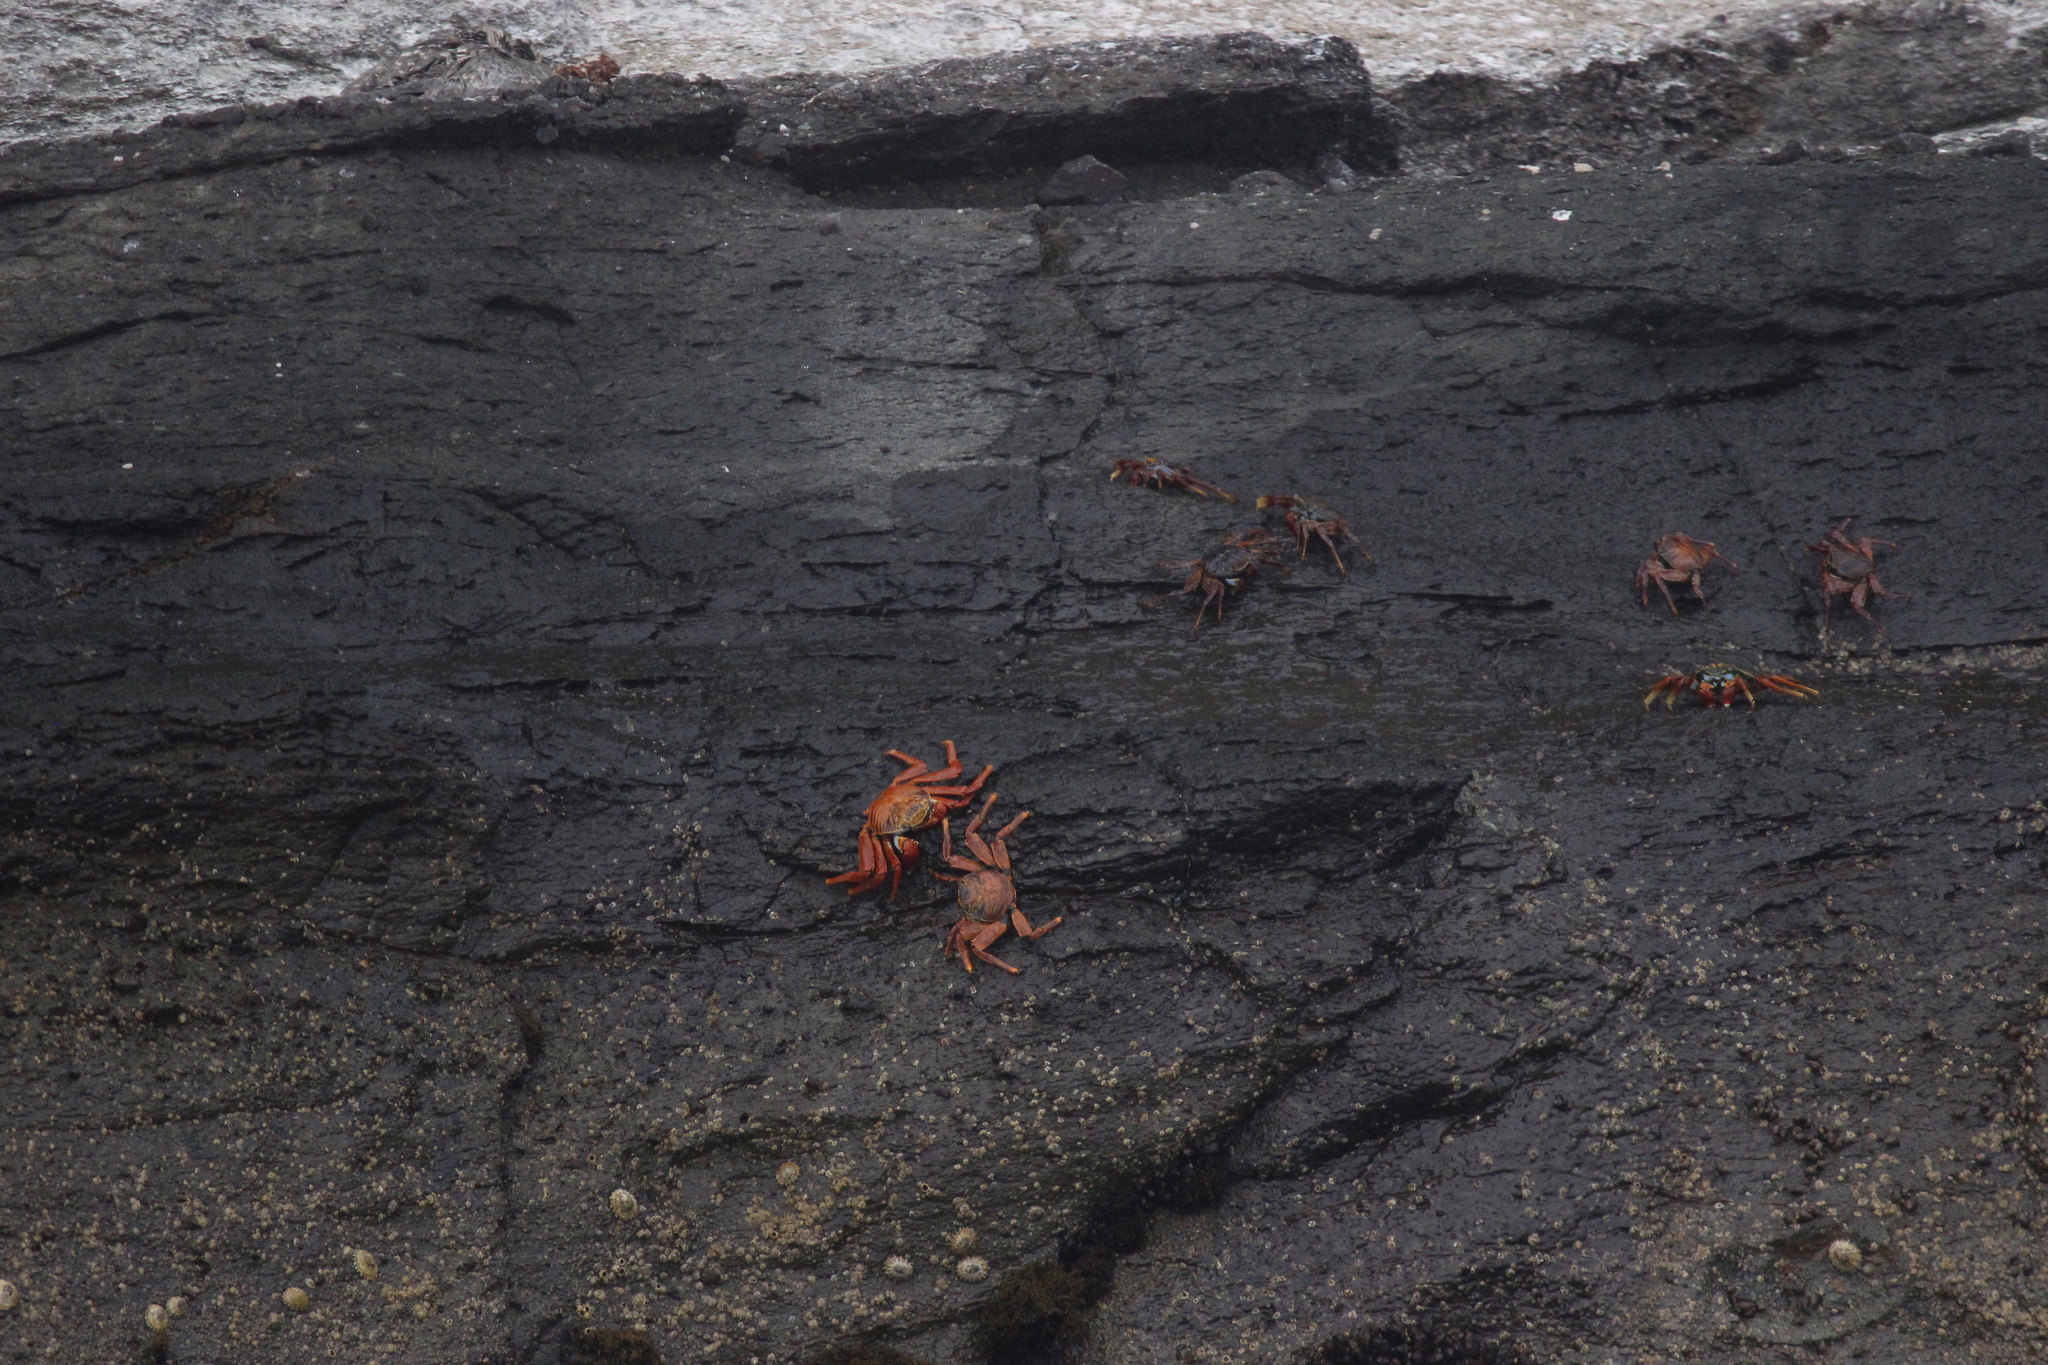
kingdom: Animalia
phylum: Arthropoda
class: Malacostraca
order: Decapoda
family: Grapsidae
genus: Grapsus
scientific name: Grapsus grapsus
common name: Sally lightfoot
